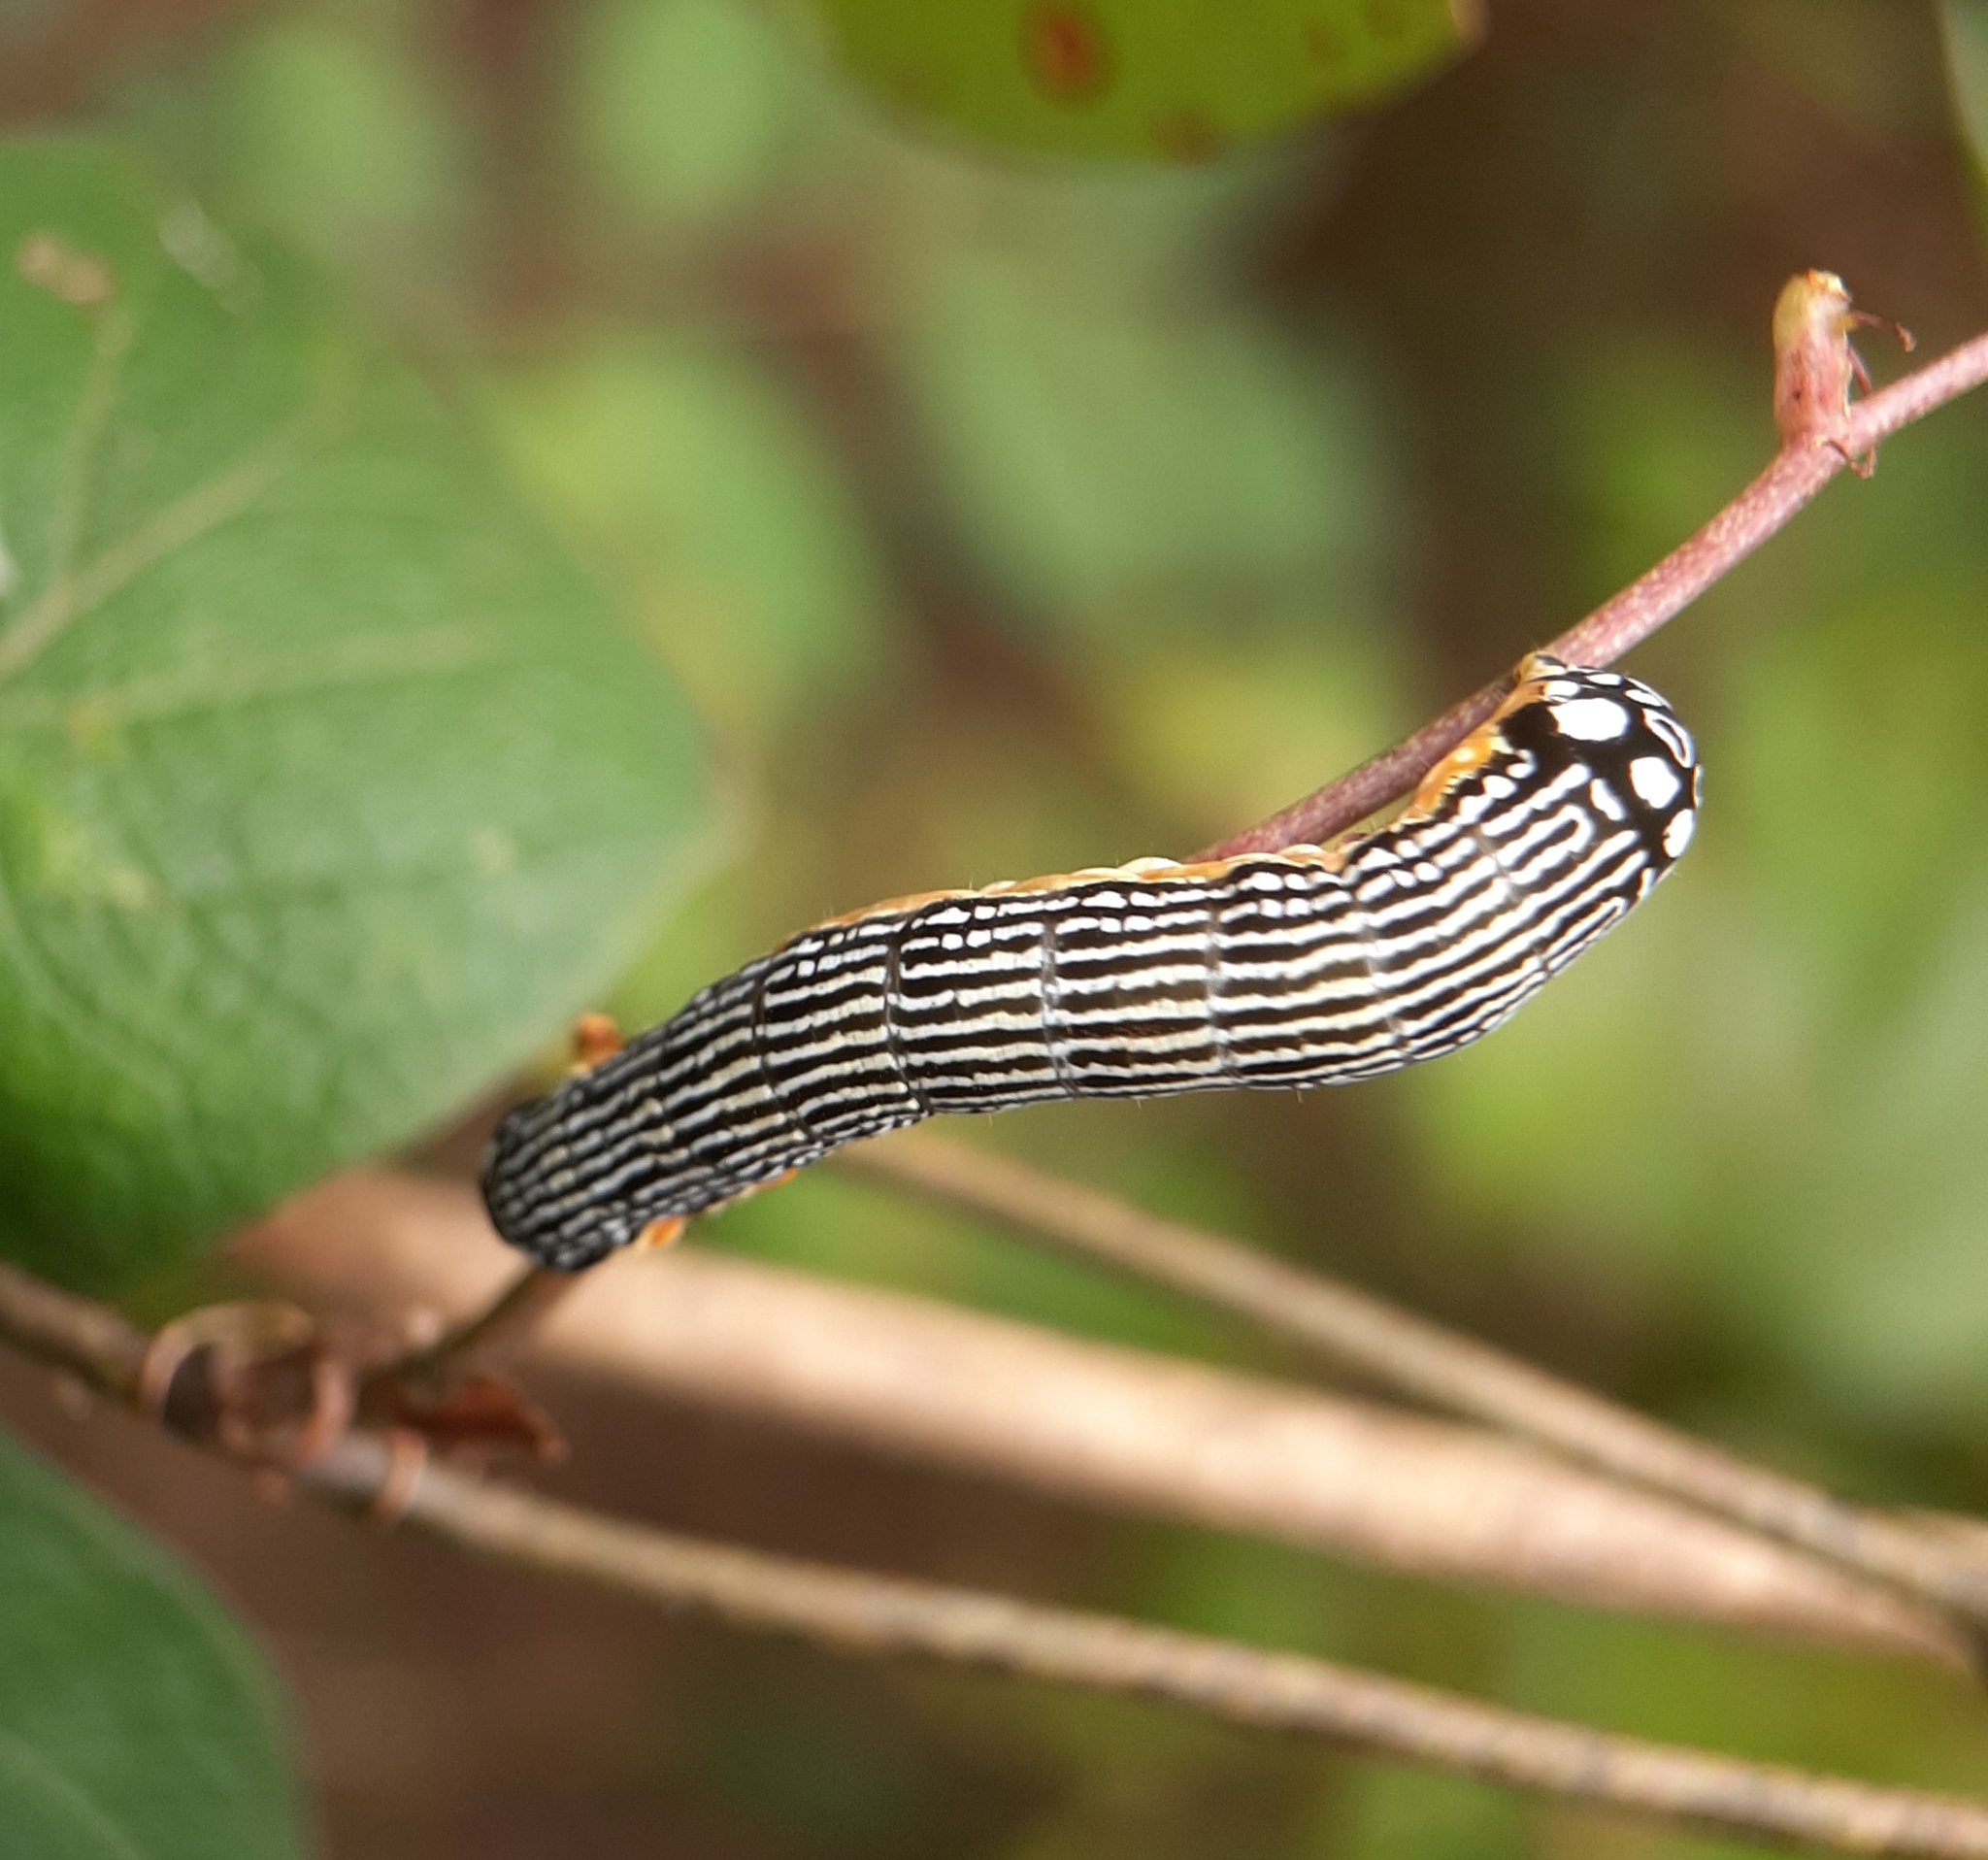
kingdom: Animalia
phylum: Arthropoda
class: Insecta
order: Lepidoptera
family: Noctuidae
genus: Phosphila
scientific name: Phosphila turbulenta
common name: Turbulent phosphila moth
